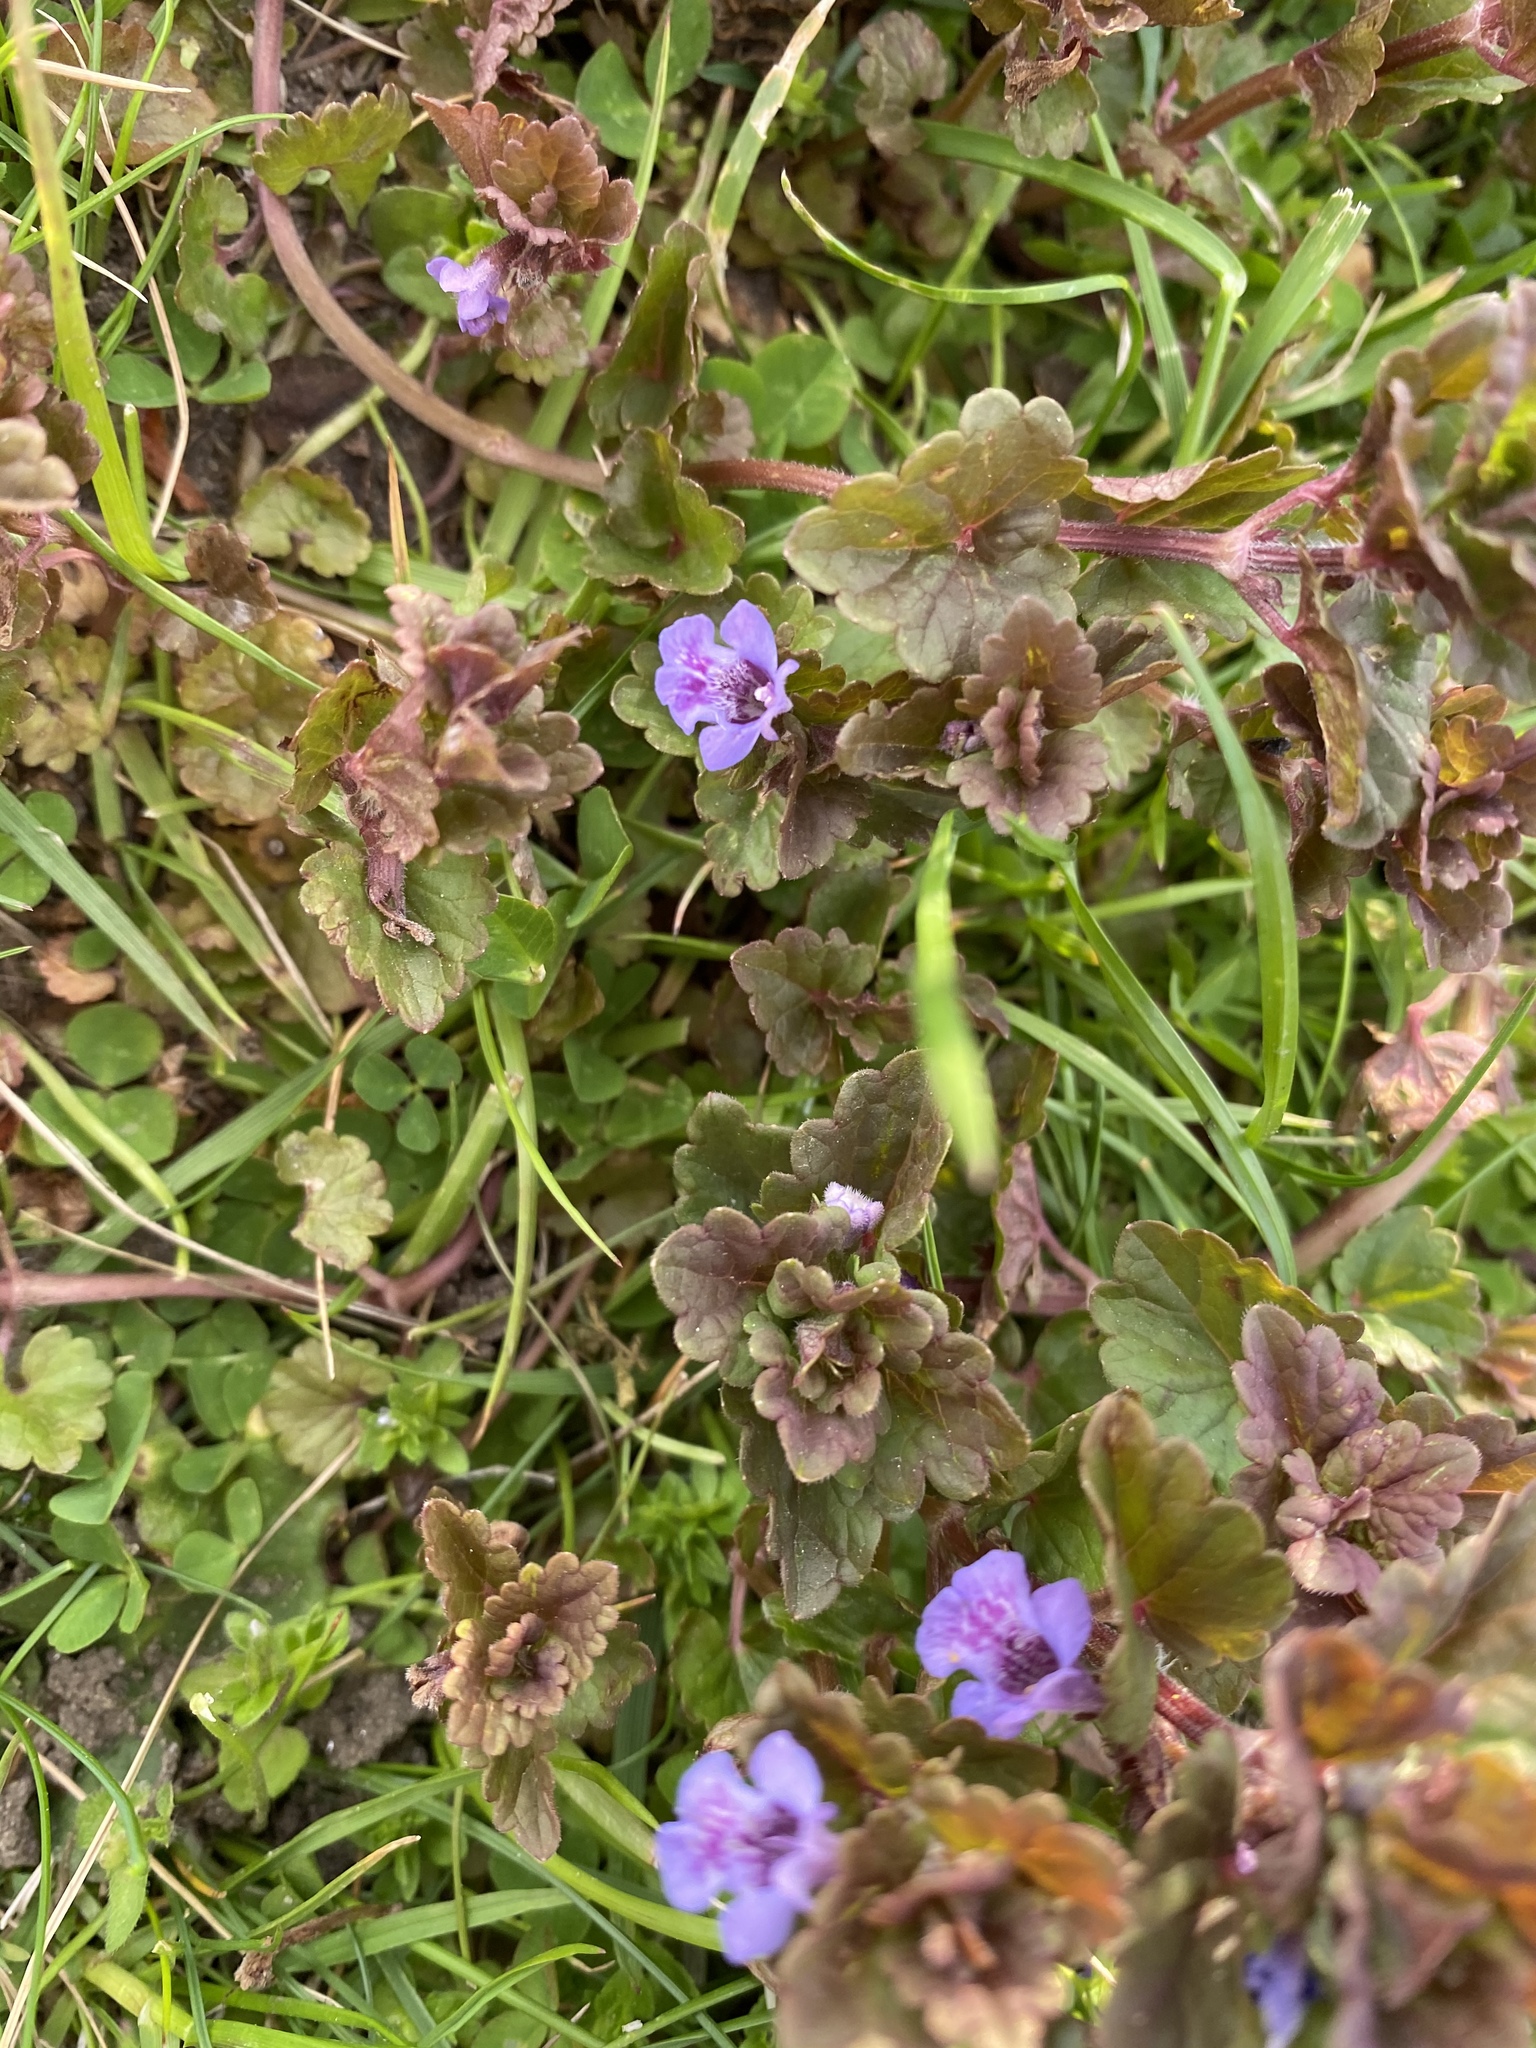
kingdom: Plantae
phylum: Tracheophyta
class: Magnoliopsida
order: Lamiales
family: Lamiaceae
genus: Glechoma
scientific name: Glechoma hederacea
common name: Ground ivy
